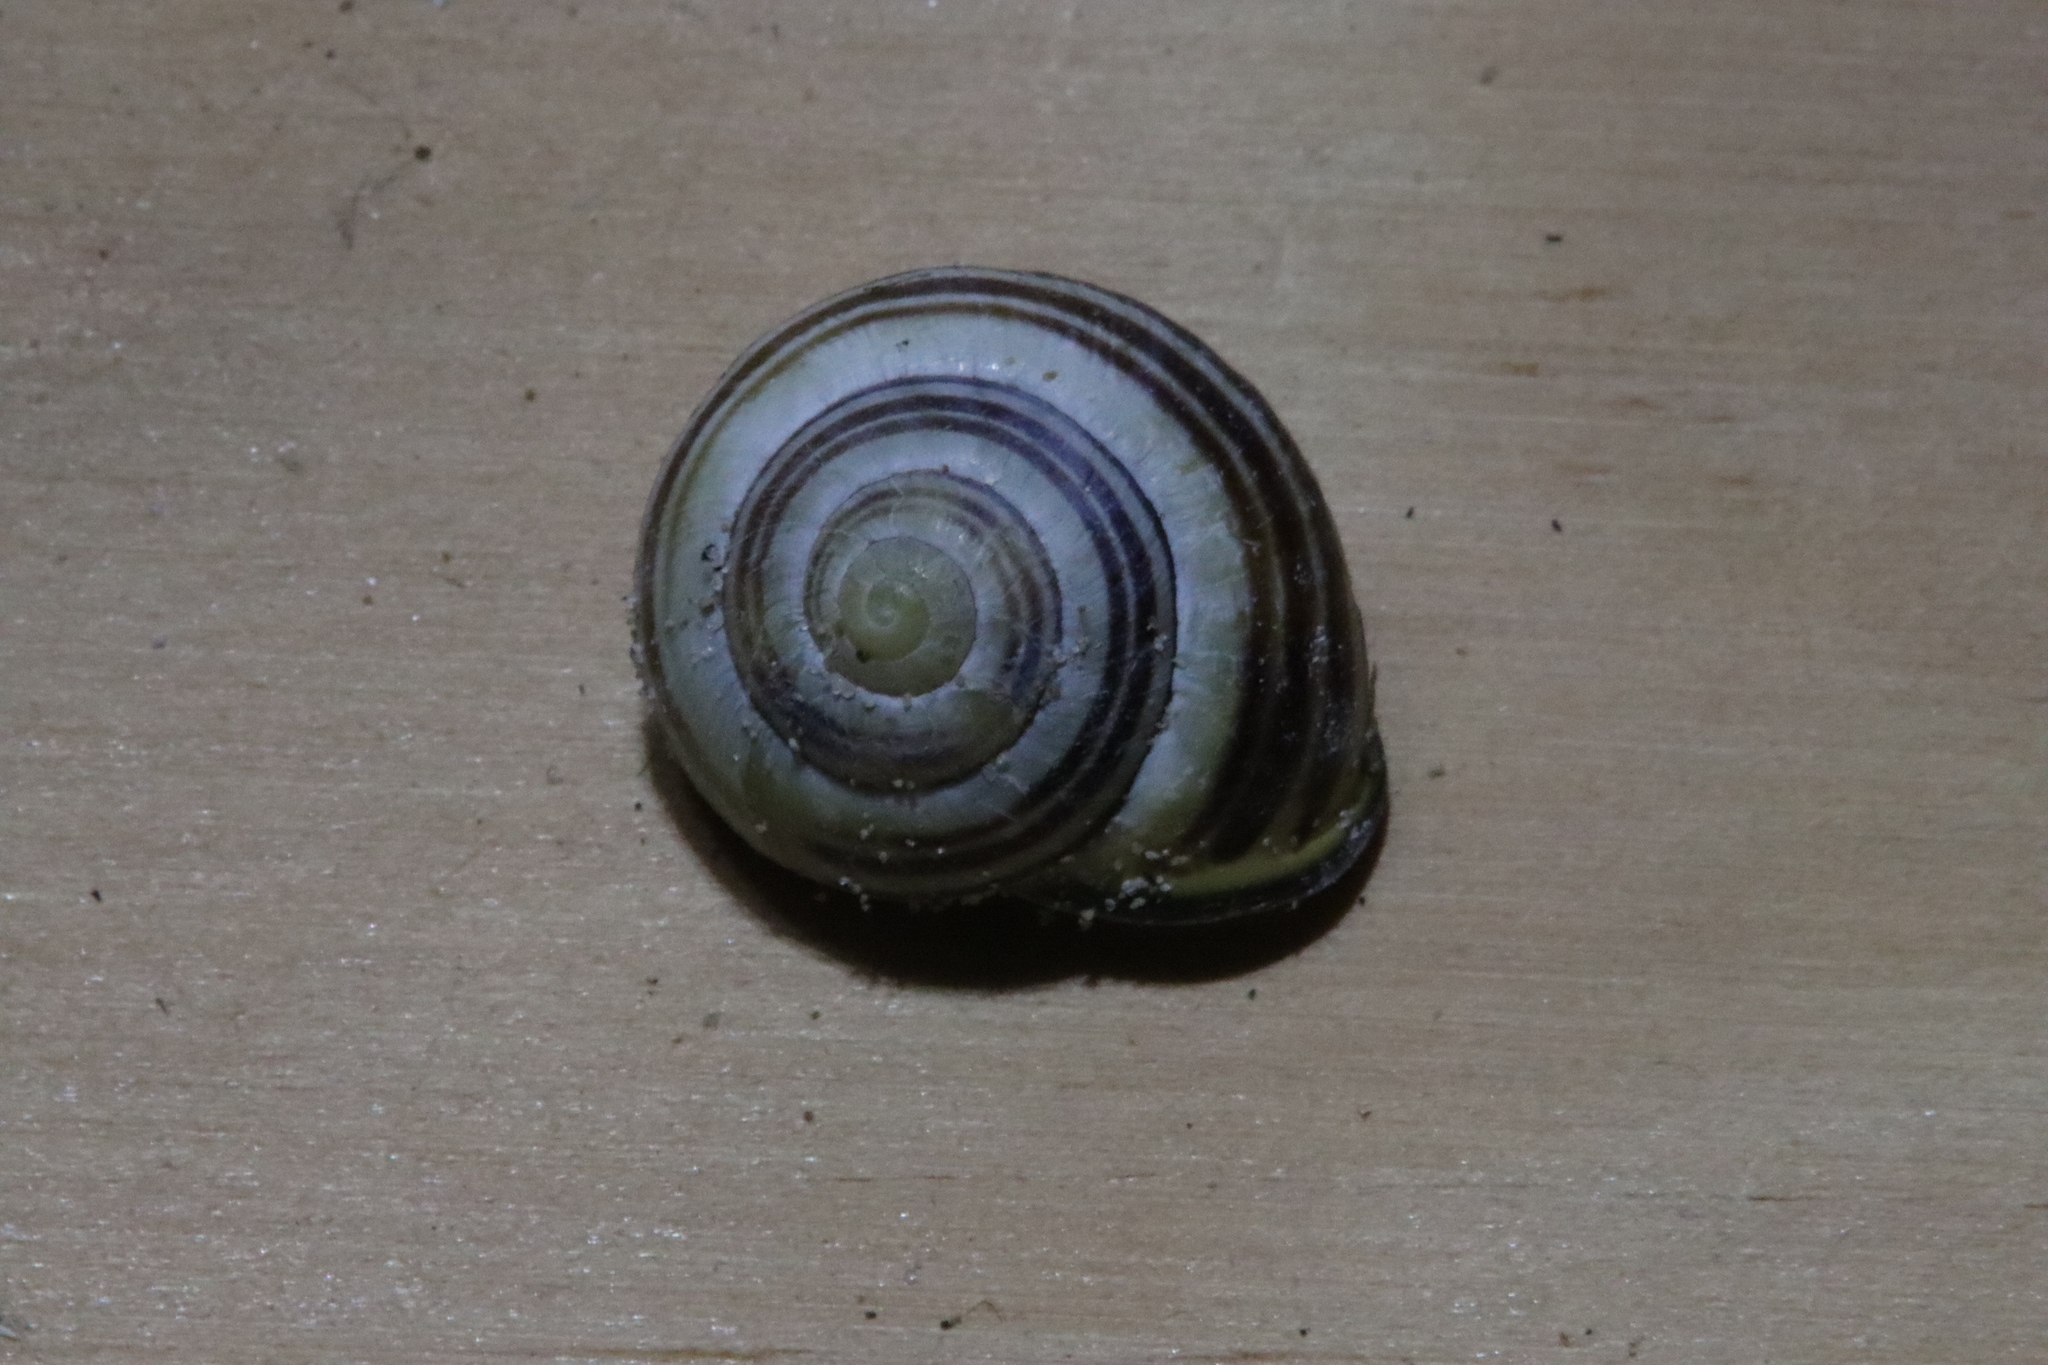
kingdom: Animalia
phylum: Mollusca
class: Gastropoda
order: Stylommatophora
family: Helicidae
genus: Cepaea
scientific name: Cepaea nemoralis
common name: Grovesnail
